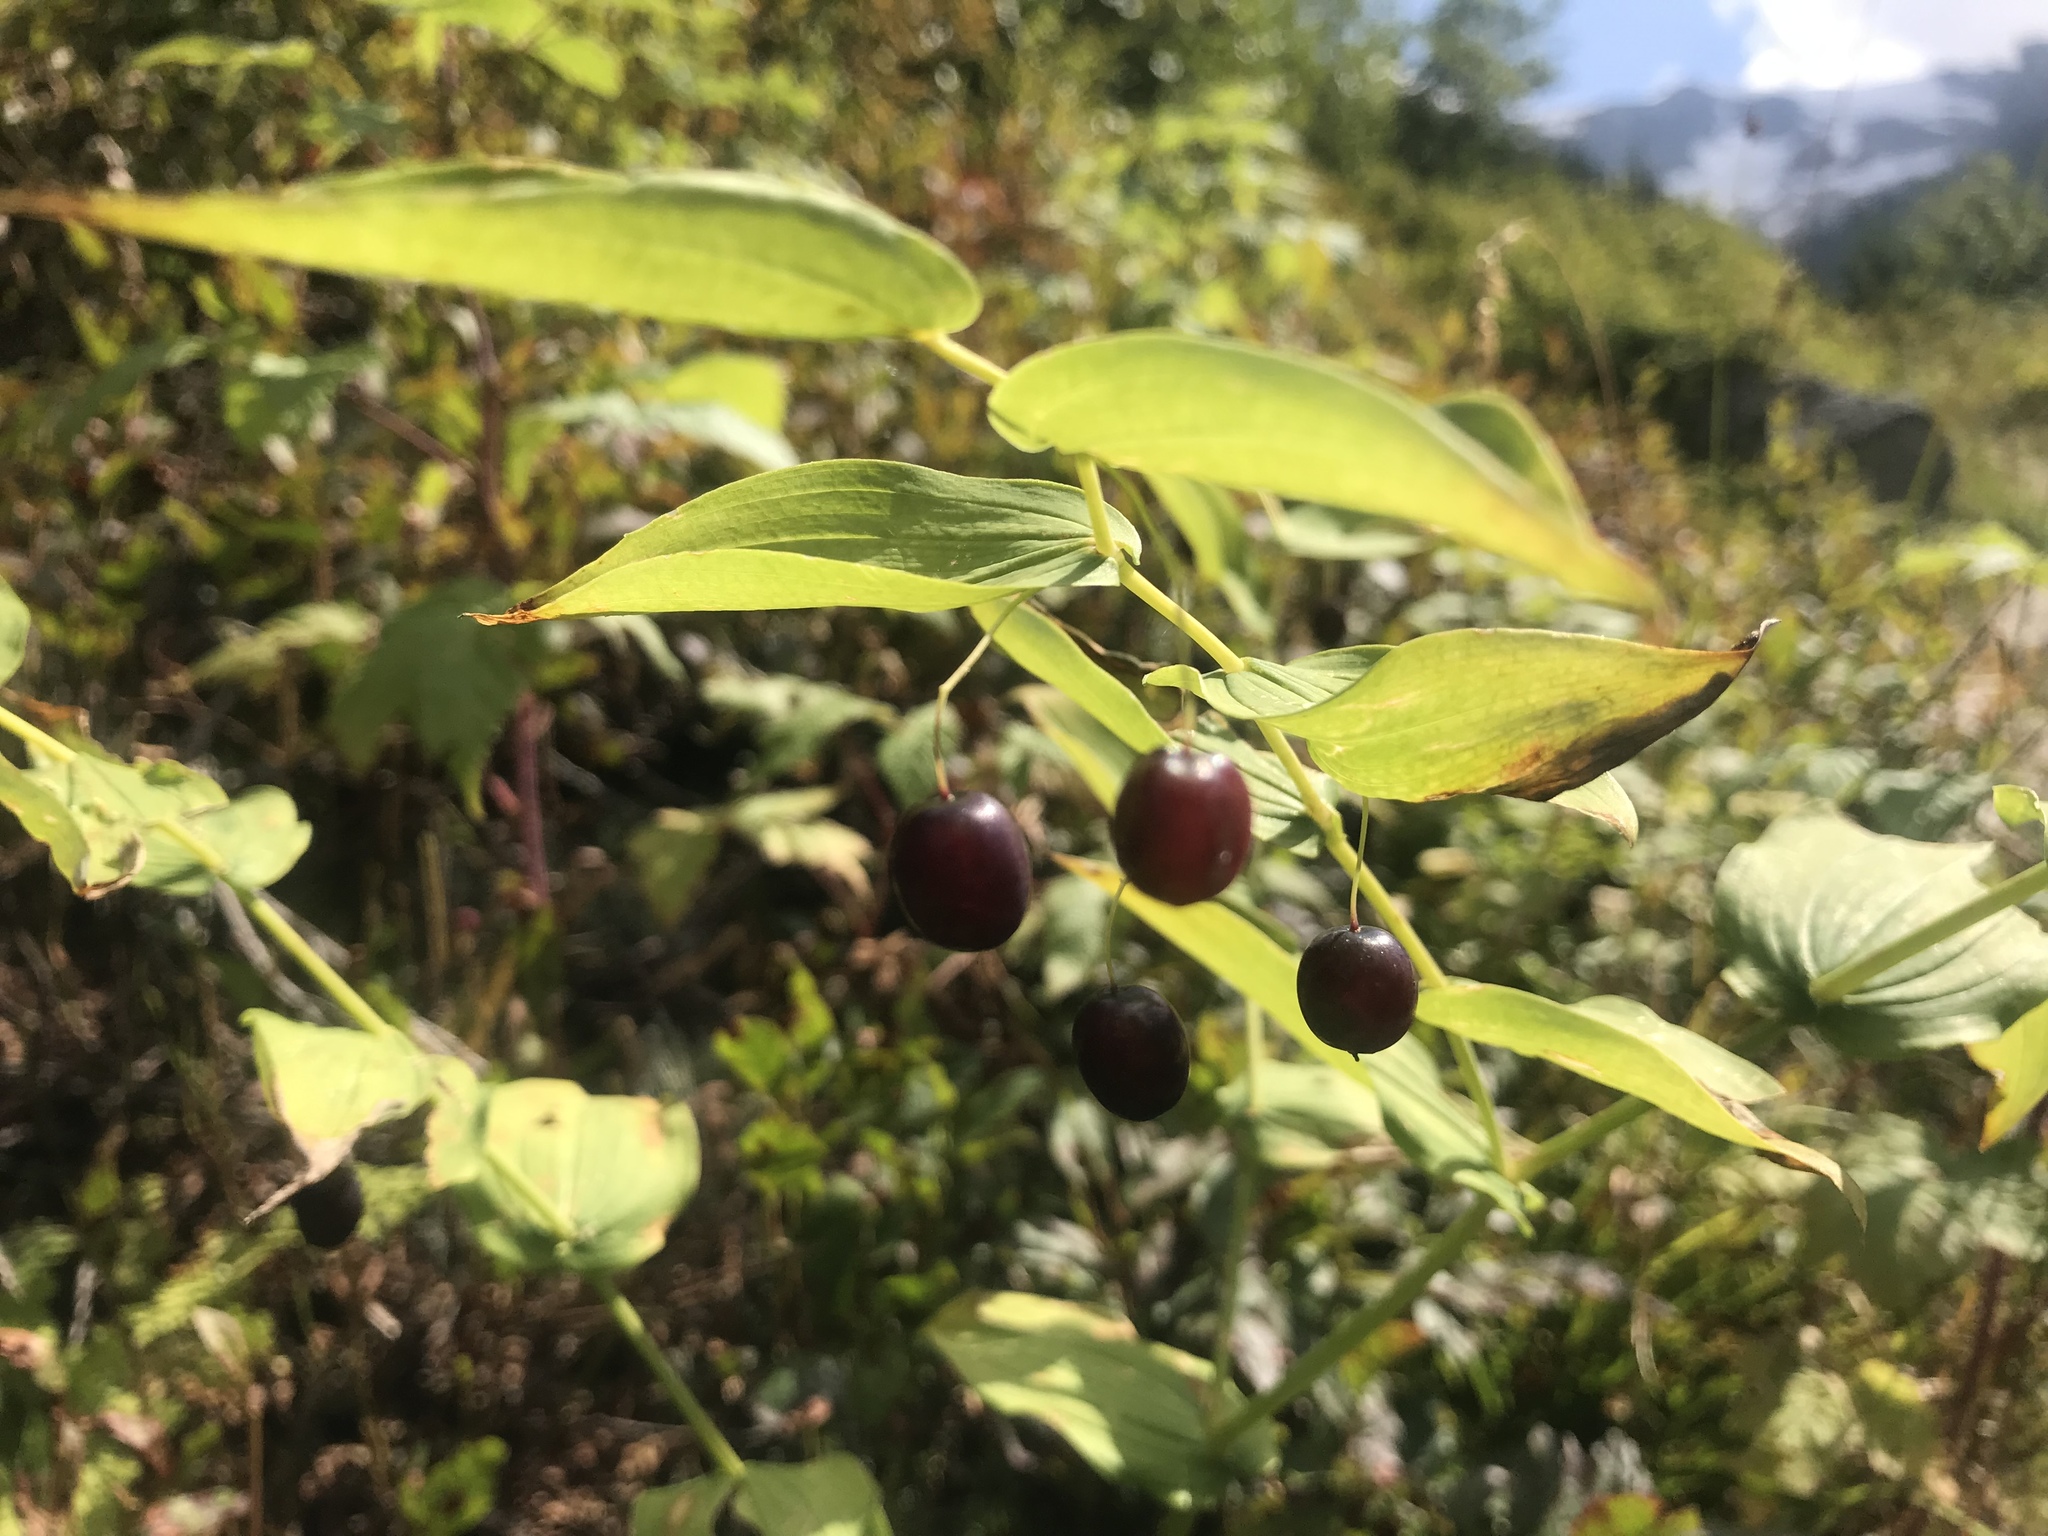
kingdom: Plantae
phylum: Tracheophyta
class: Liliopsida
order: Liliales
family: Liliaceae
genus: Streptopus
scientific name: Streptopus amplexifolius
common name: Clasp twisted stalk
